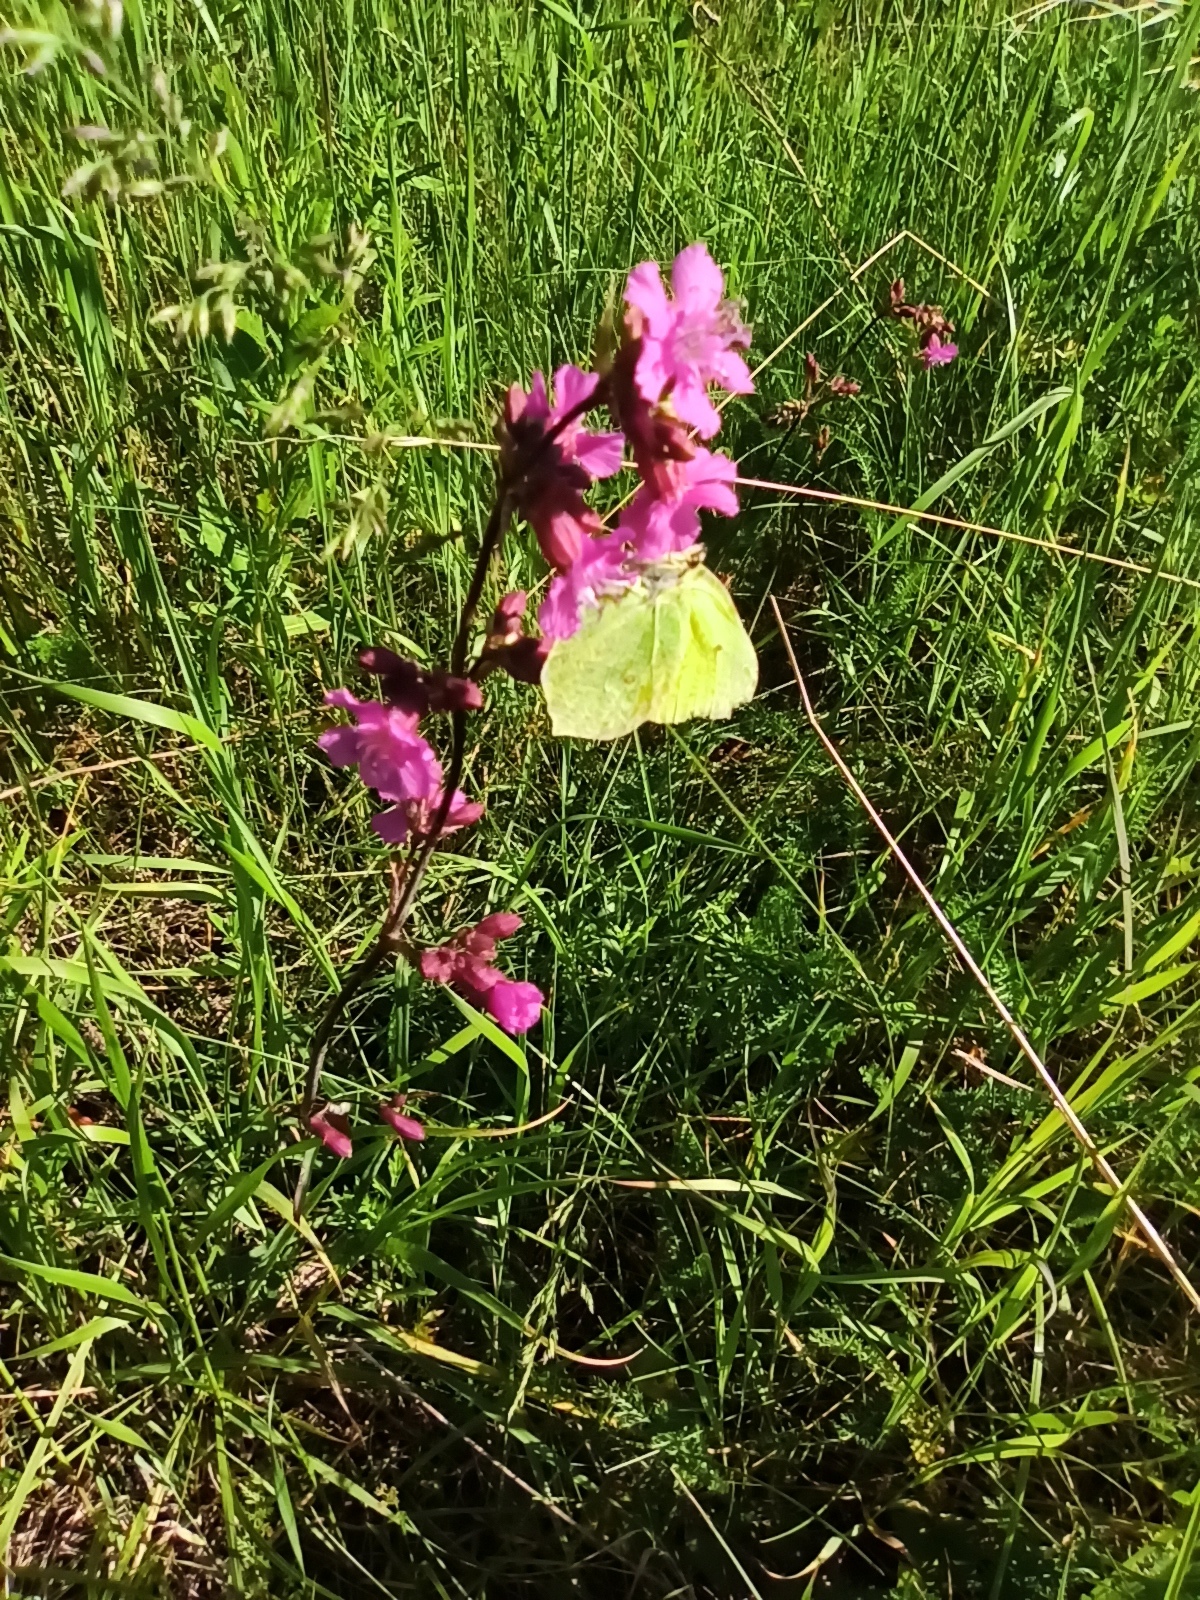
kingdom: Animalia
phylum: Arthropoda
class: Insecta
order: Lepidoptera
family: Pieridae
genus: Gonepteryx
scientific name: Gonepteryx rhamni
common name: Brimstone
